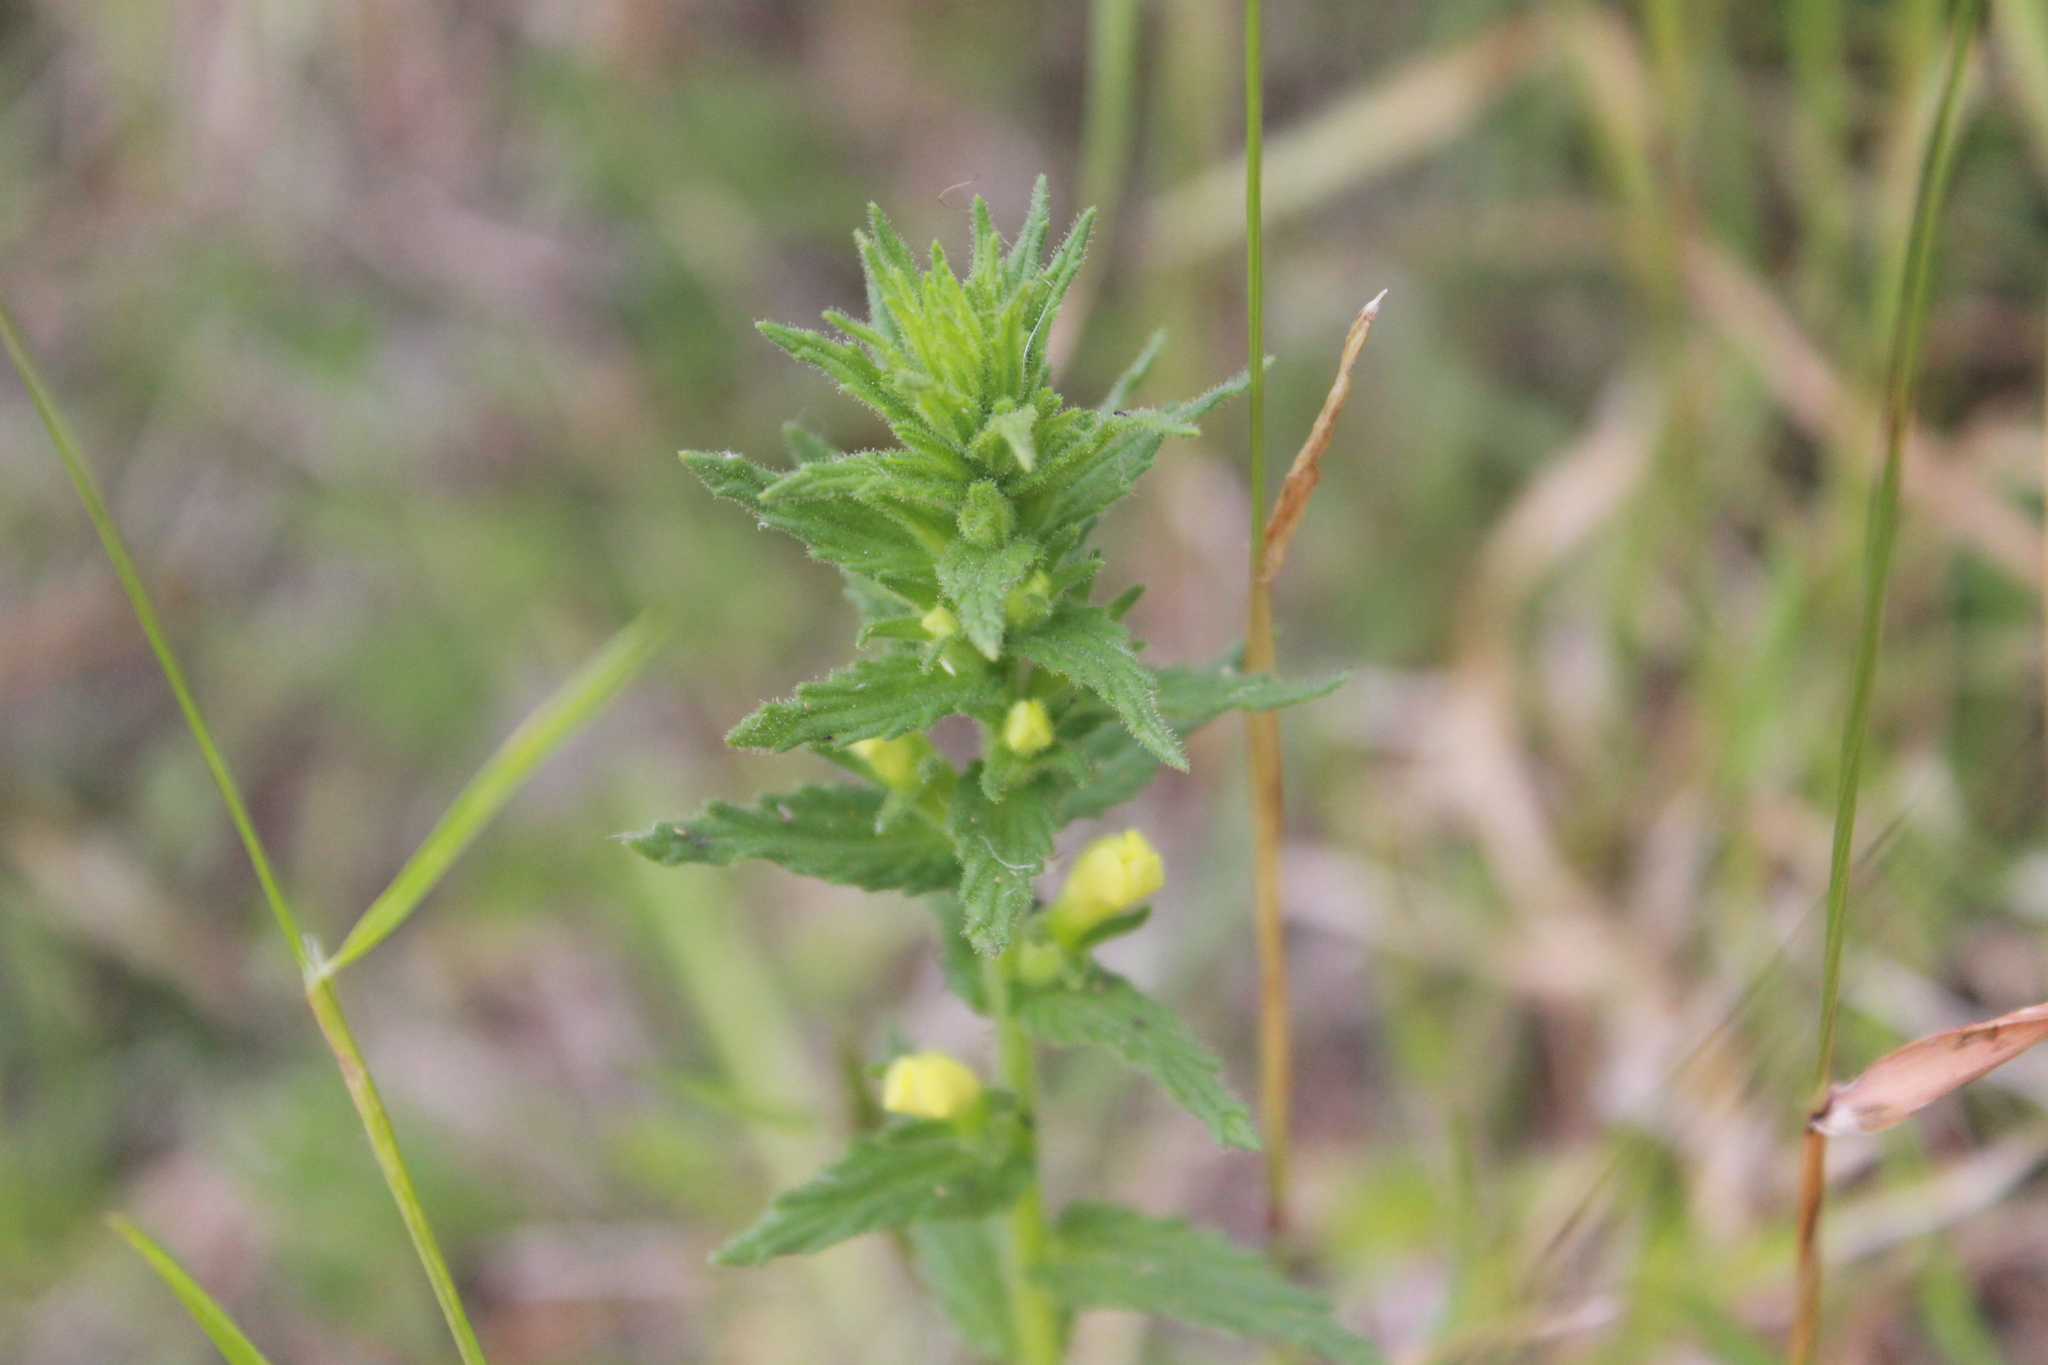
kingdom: Plantae
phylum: Tracheophyta
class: Magnoliopsida
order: Lamiales
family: Orobanchaceae
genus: Bellardia
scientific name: Bellardia viscosa
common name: Sticky parentucellia
